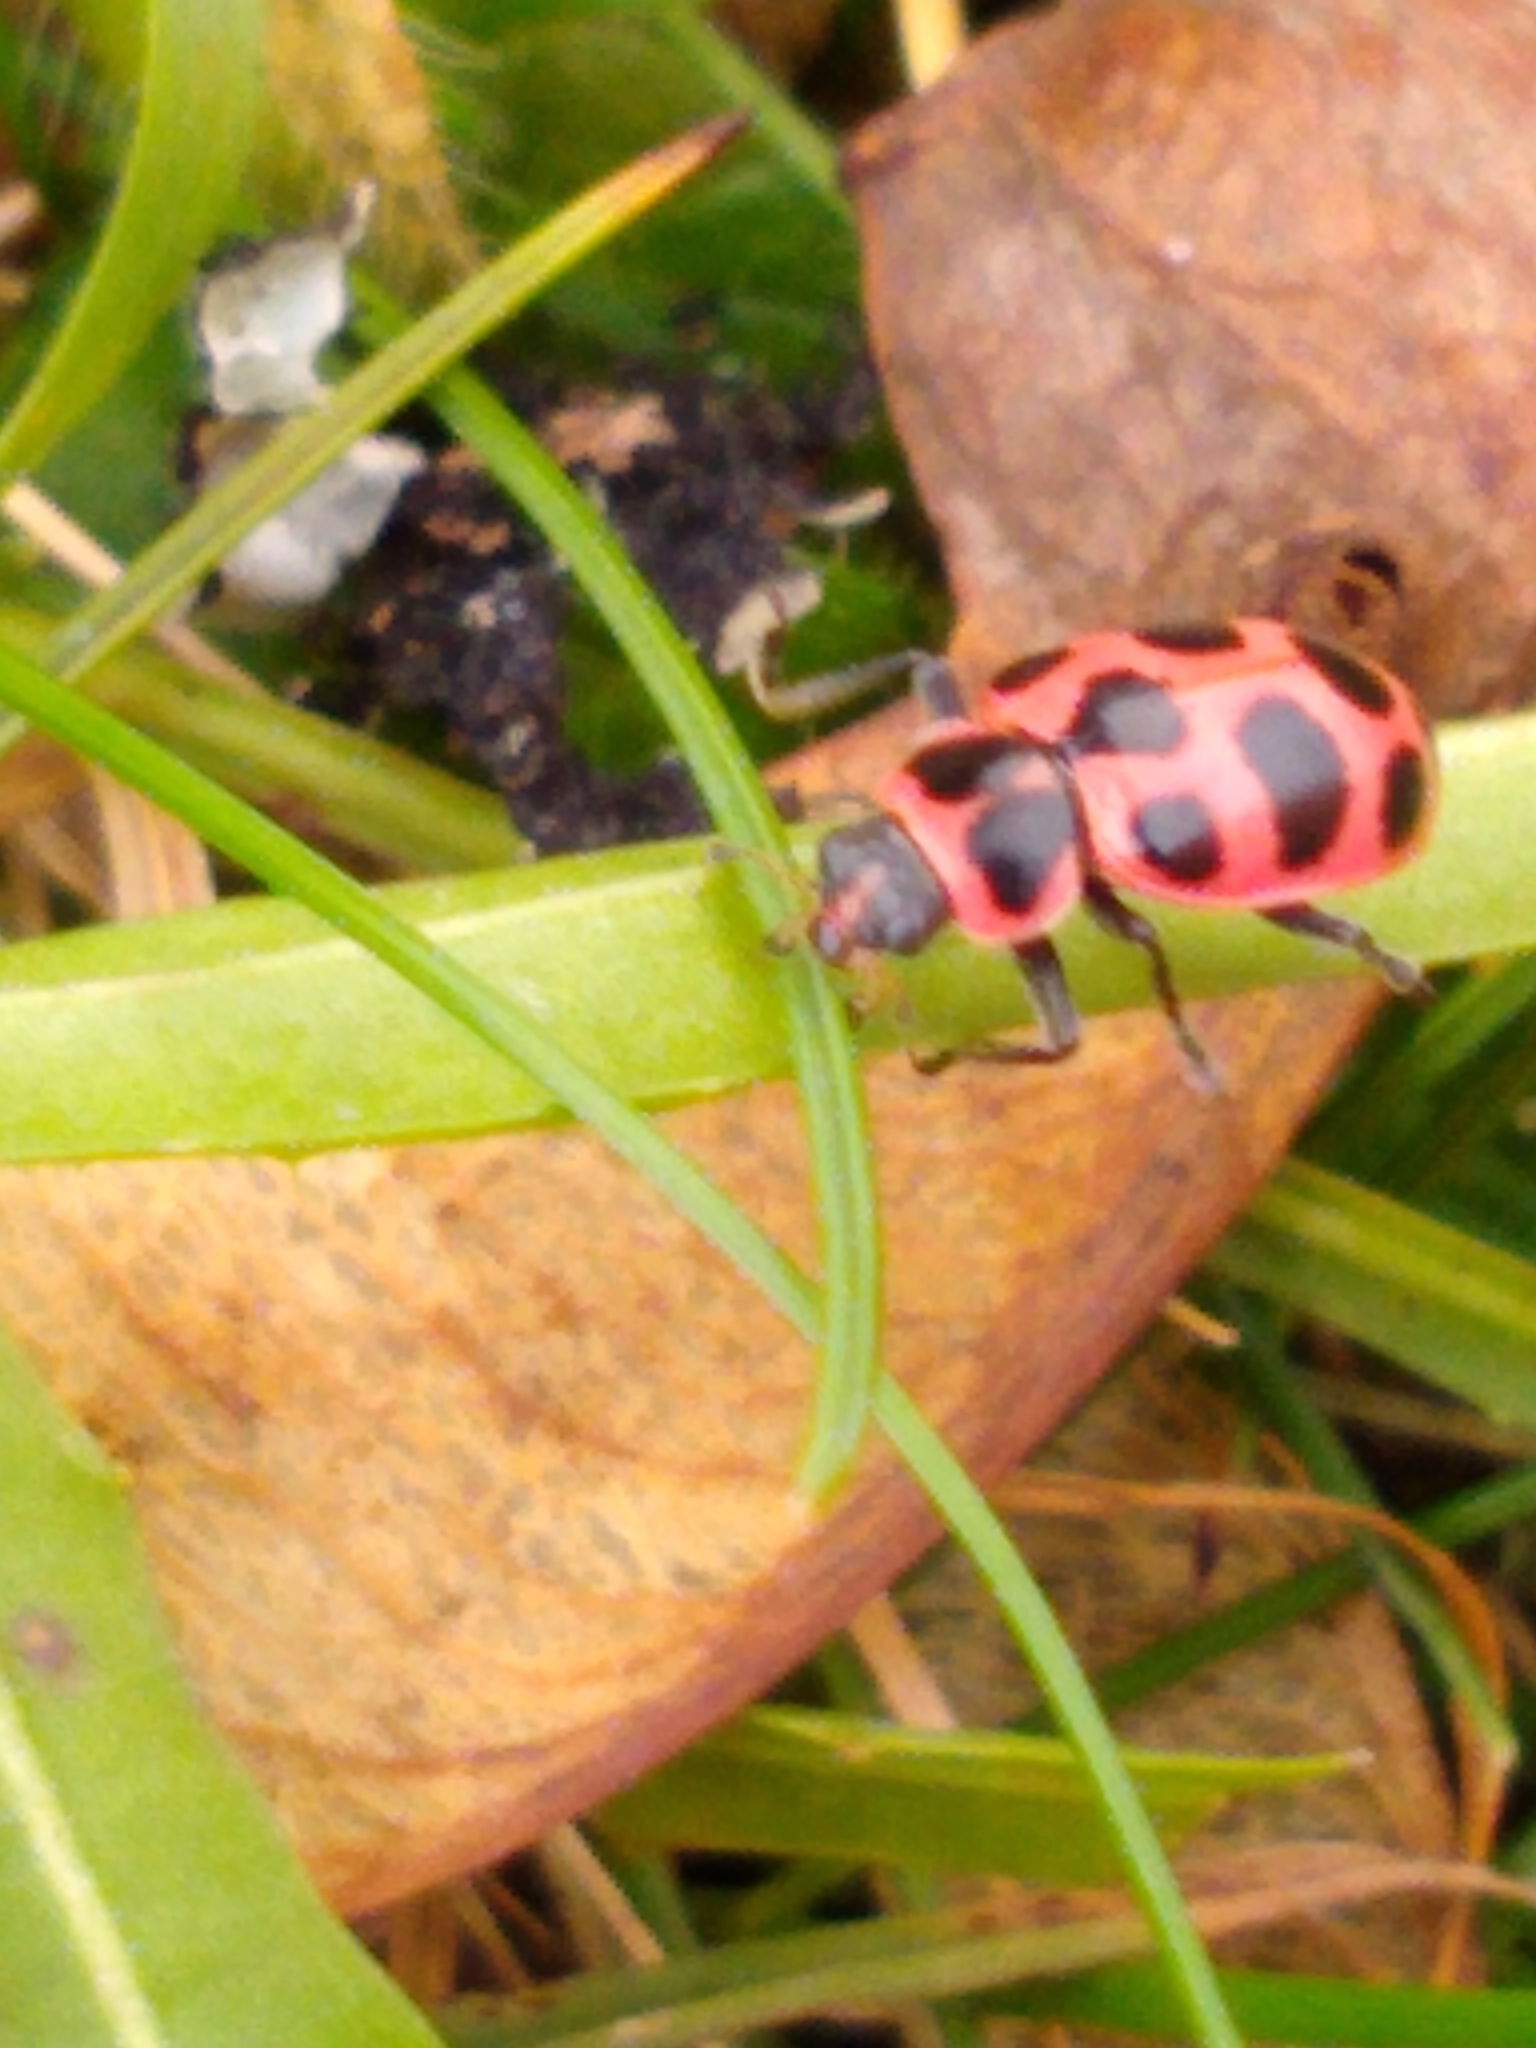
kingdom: Animalia
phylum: Arthropoda
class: Insecta
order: Coleoptera
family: Coccinellidae
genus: Coleomegilla
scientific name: Coleomegilla maculata
